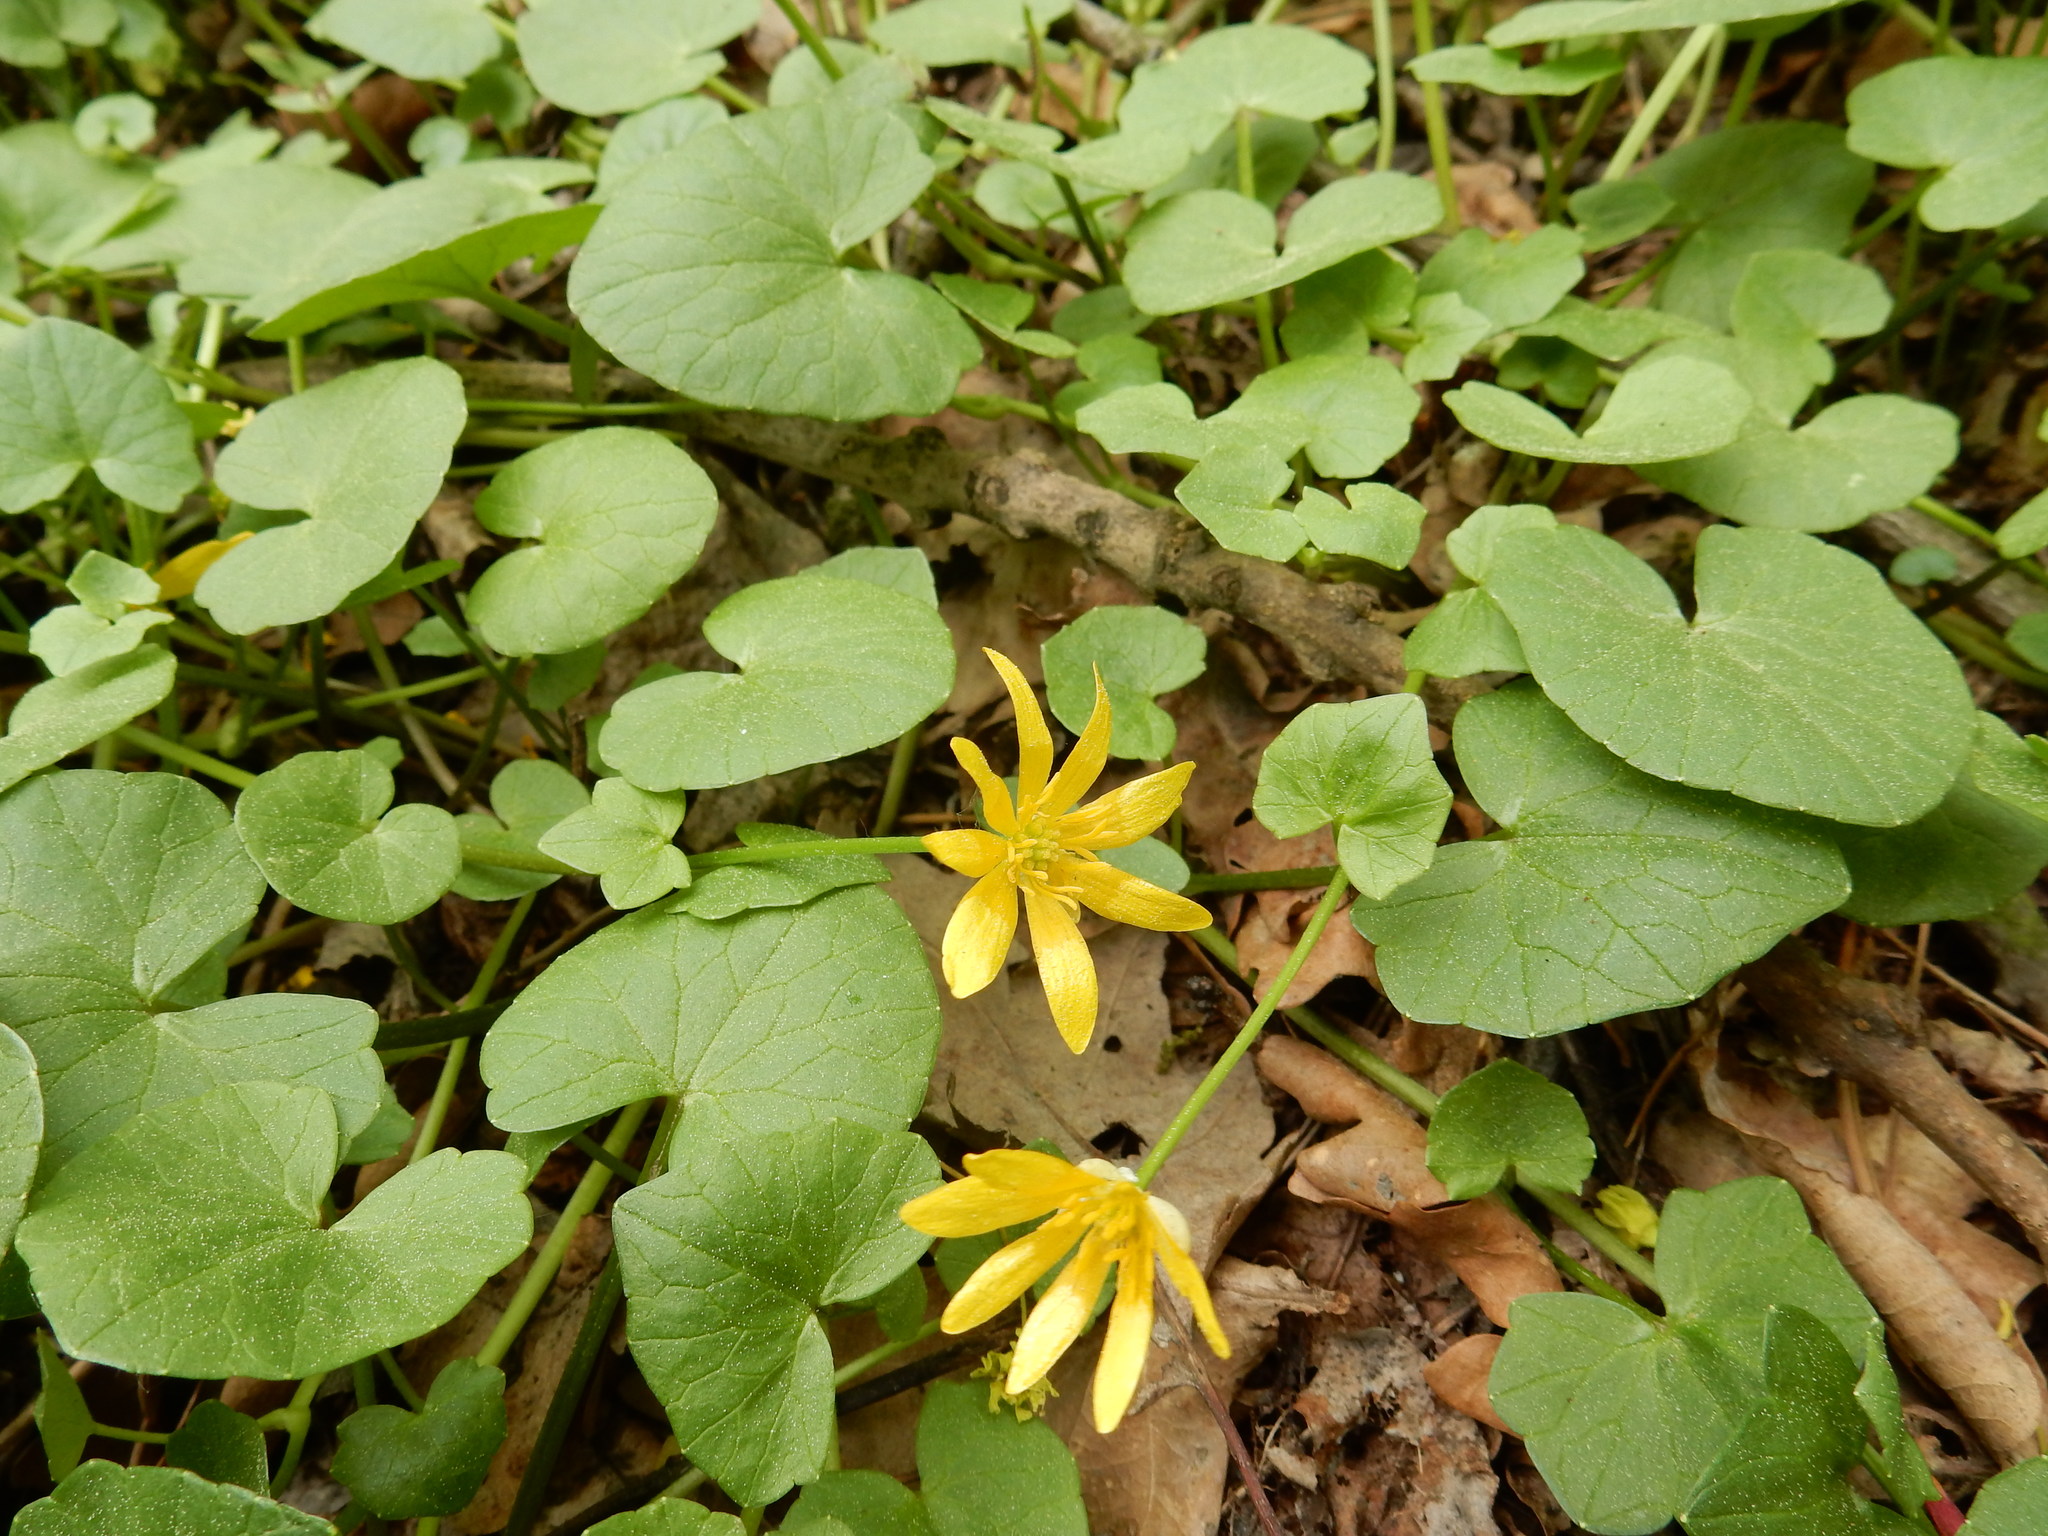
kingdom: Plantae
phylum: Tracheophyta
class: Magnoliopsida
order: Ranunculales
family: Ranunculaceae
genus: Ficaria
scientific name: Ficaria verna
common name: Lesser celandine
